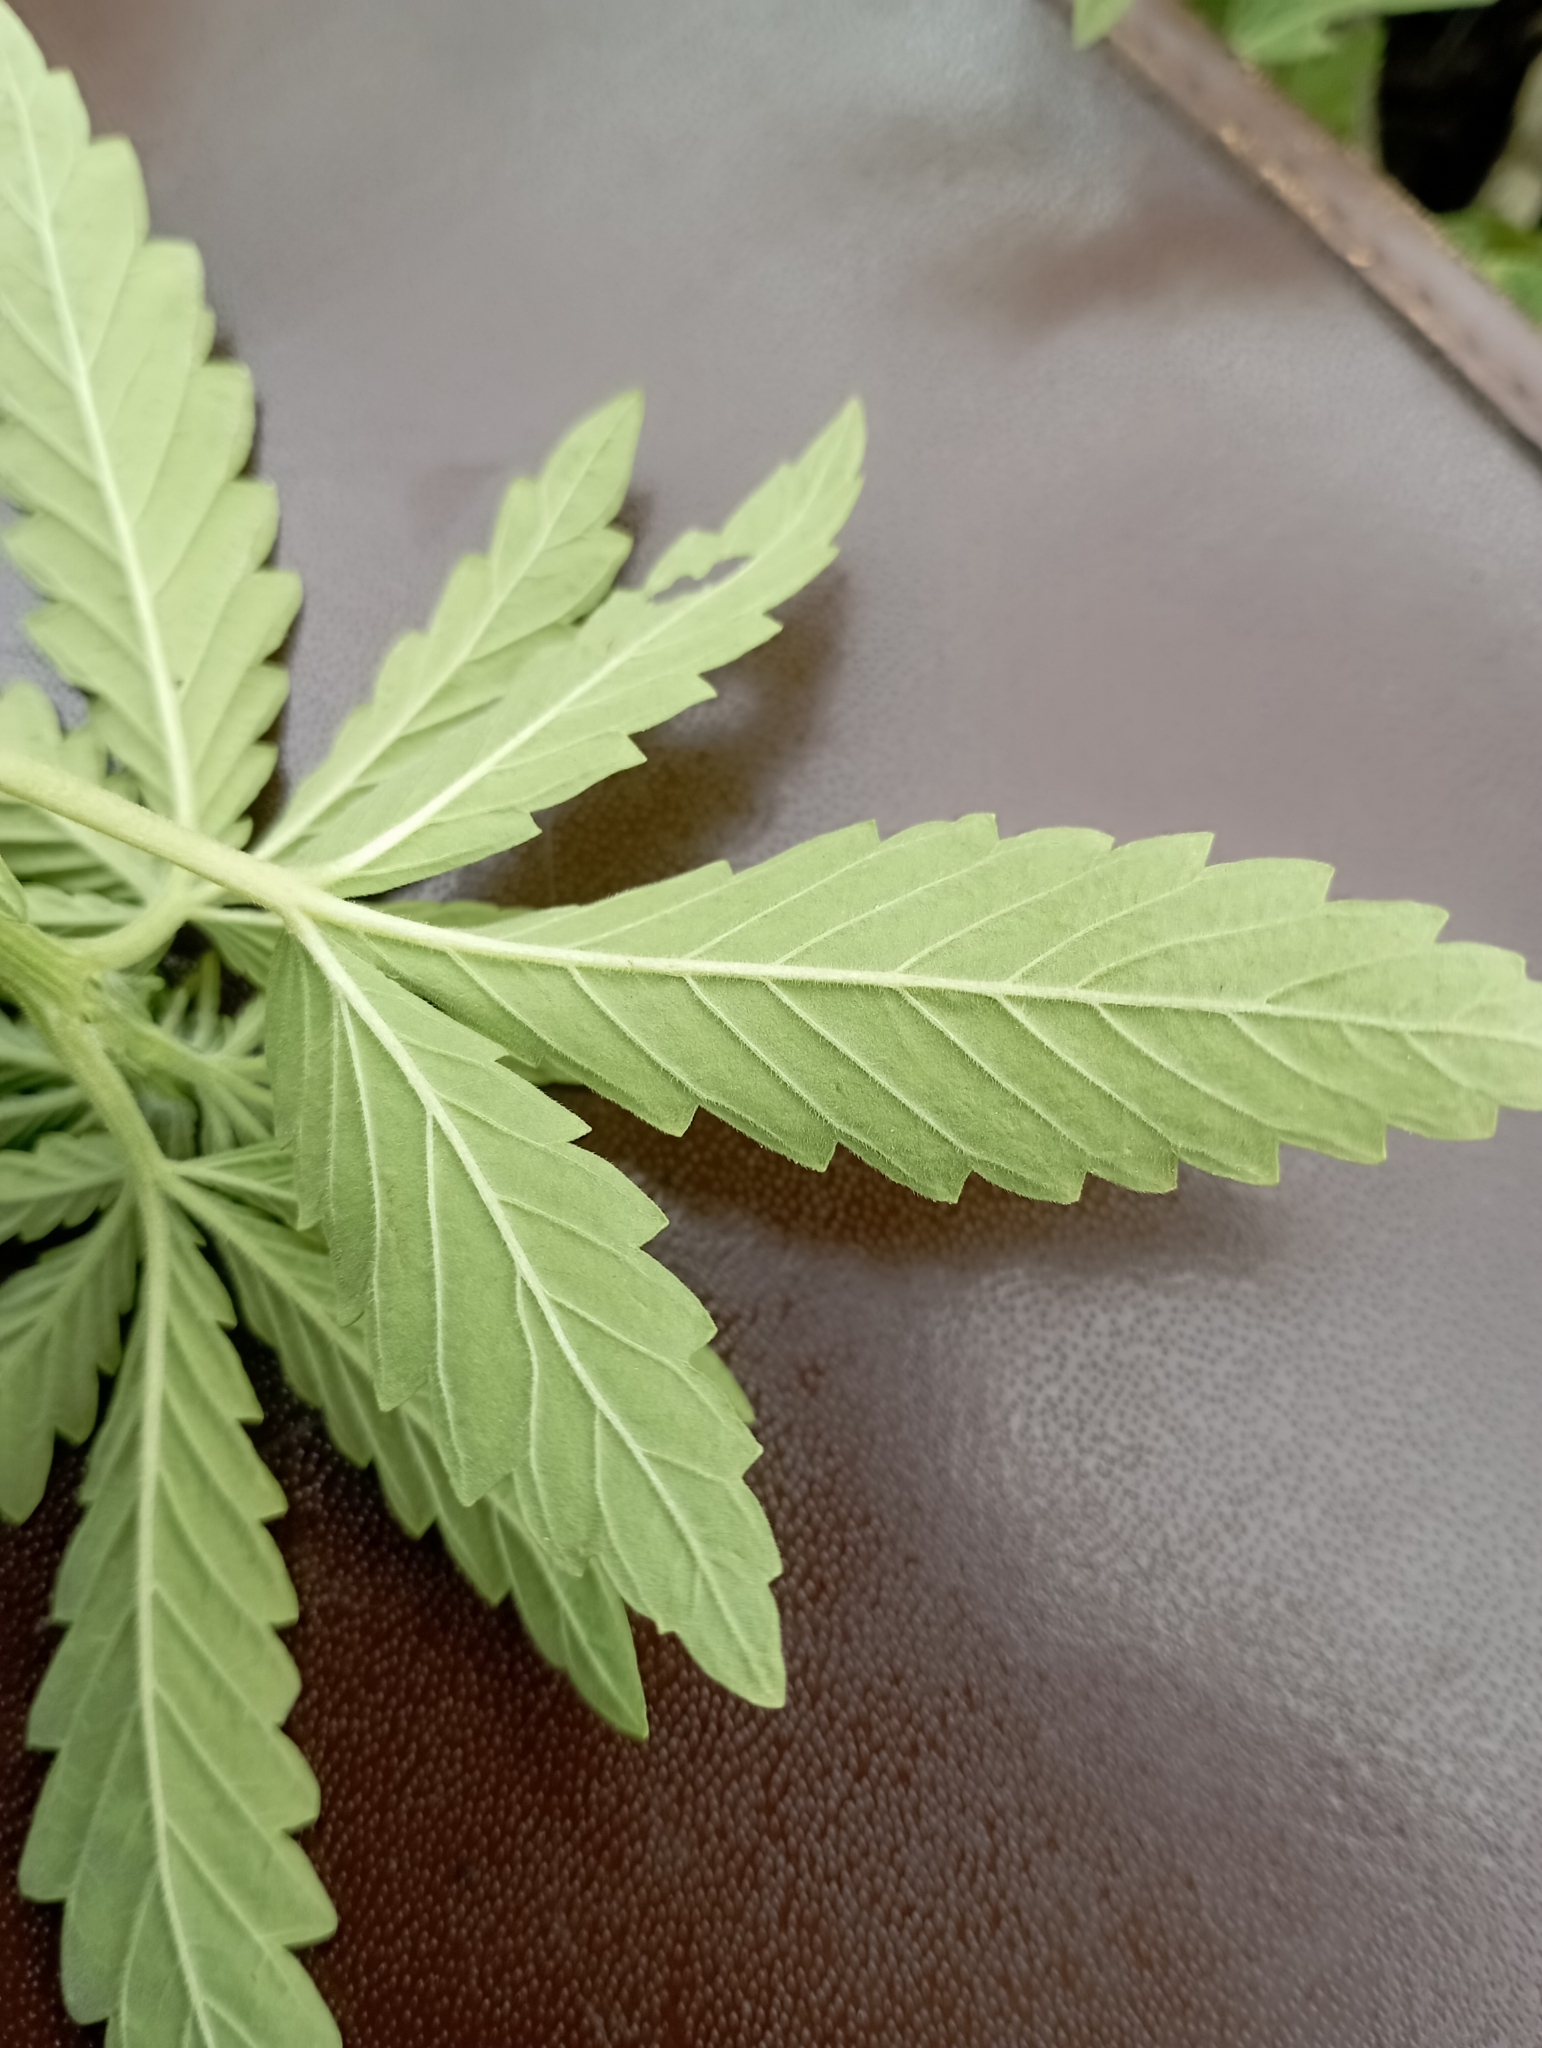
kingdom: Plantae
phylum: Tracheophyta
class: Magnoliopsida
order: Rosales
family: Cannabaceae
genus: Cannabis
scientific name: Cannabis sativa
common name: Hemp
